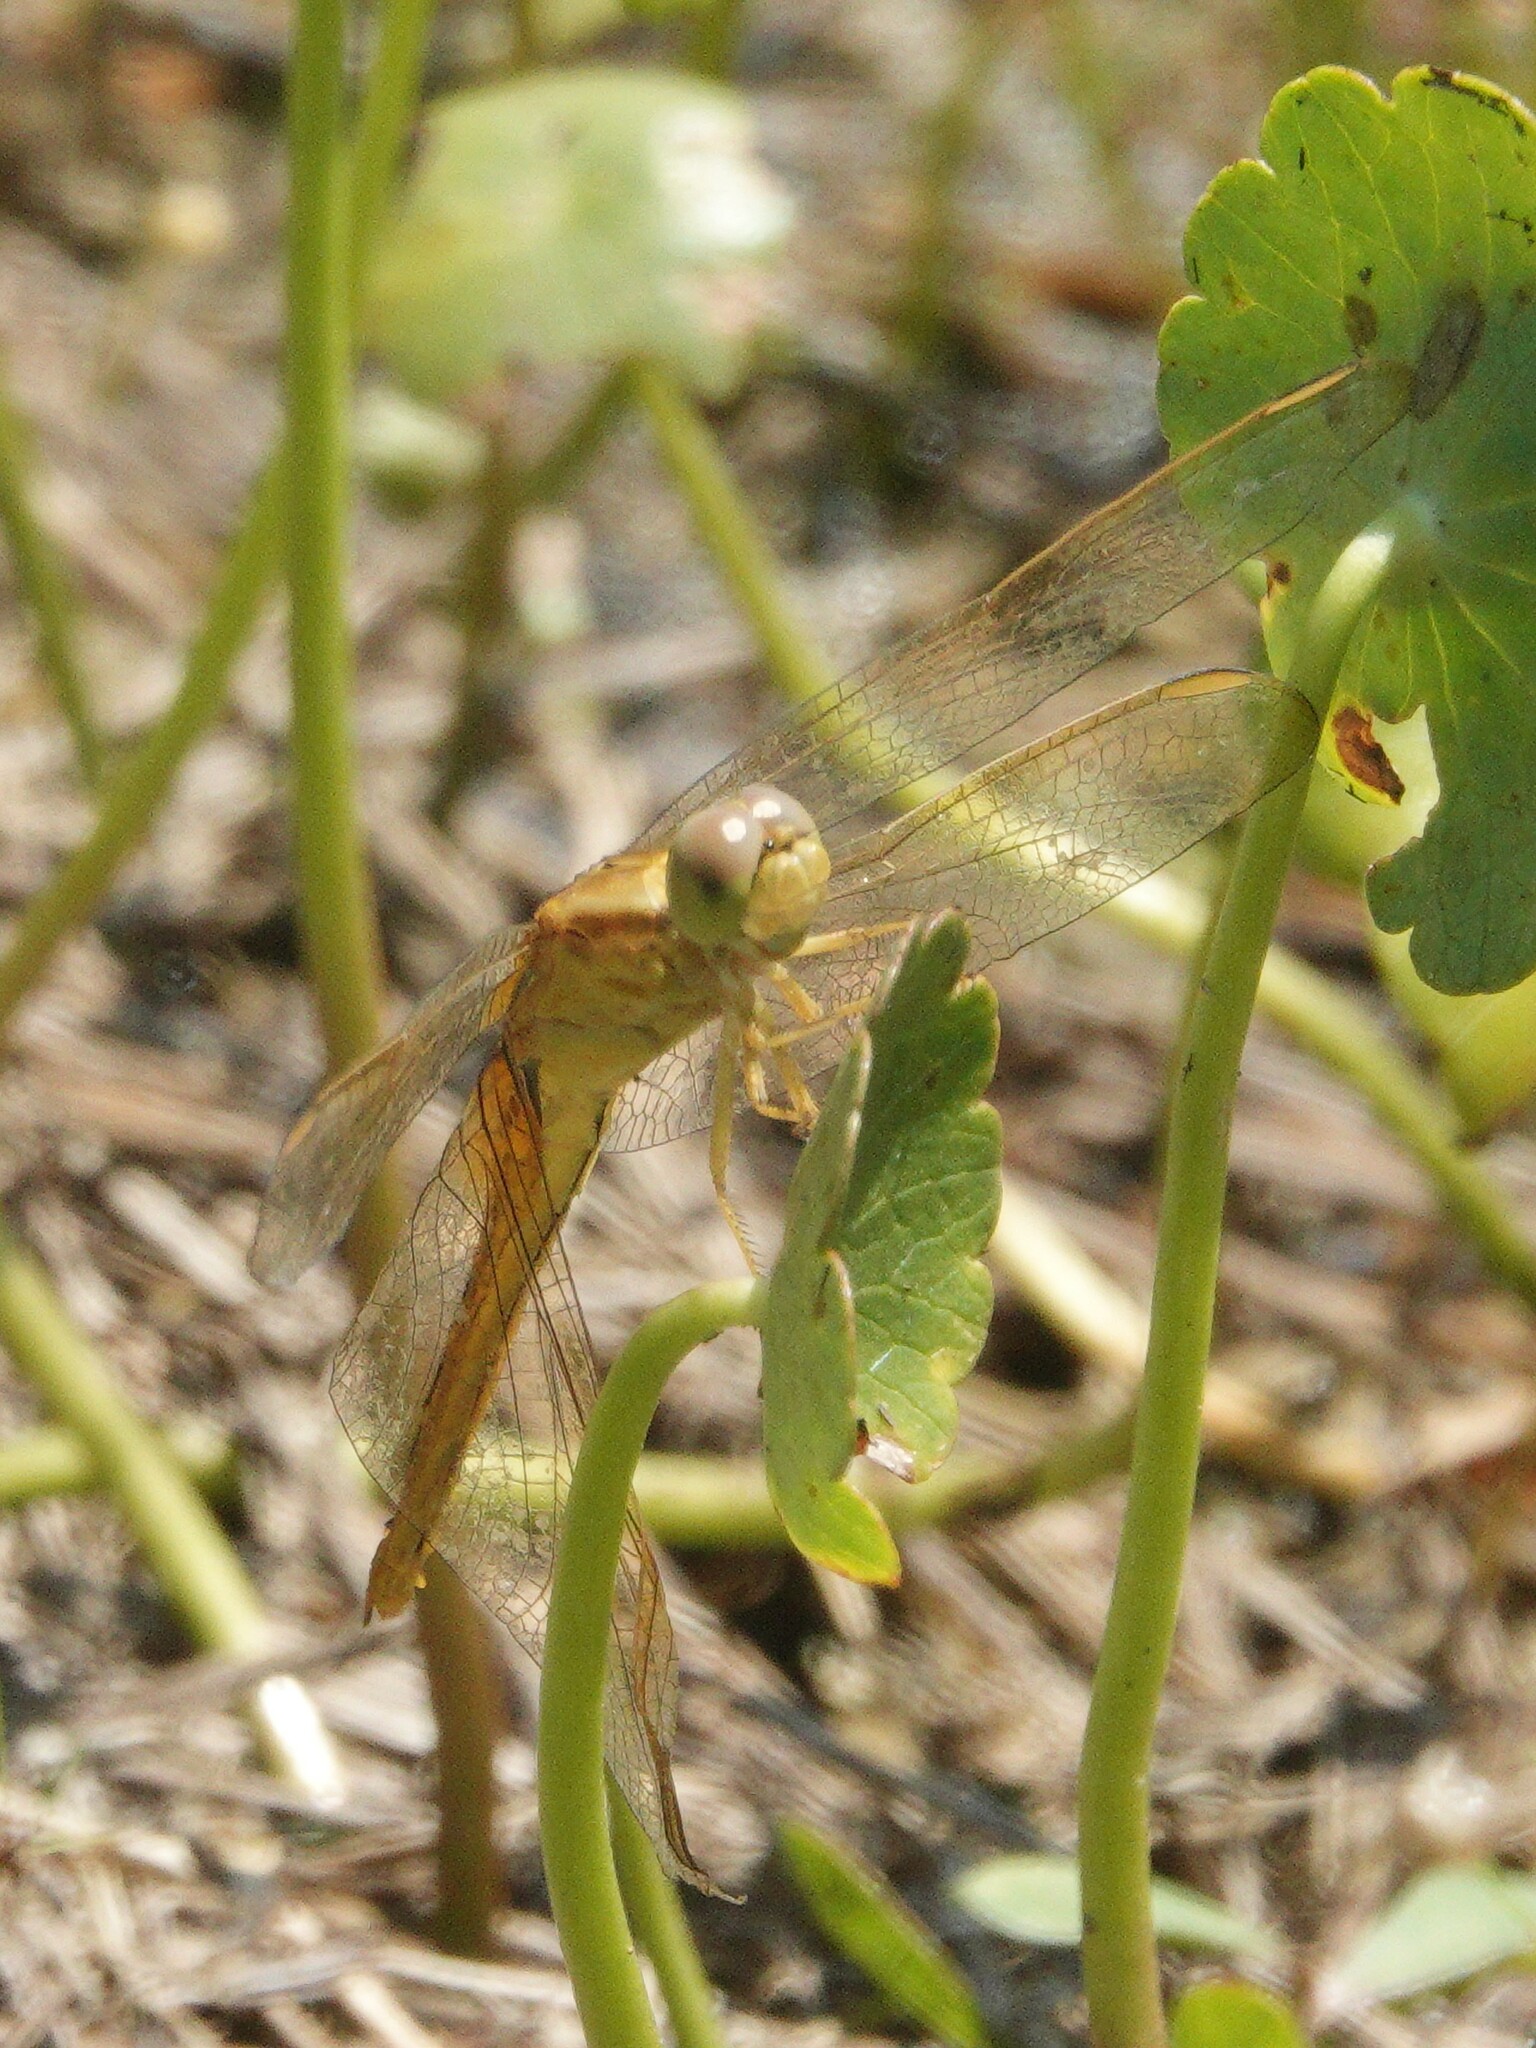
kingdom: Animalia
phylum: Arthropoda
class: Insecta
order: Odonata
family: Libellulidae
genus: Crocothemis
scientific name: Crocothemis servilia
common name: Scarlet skimmer
